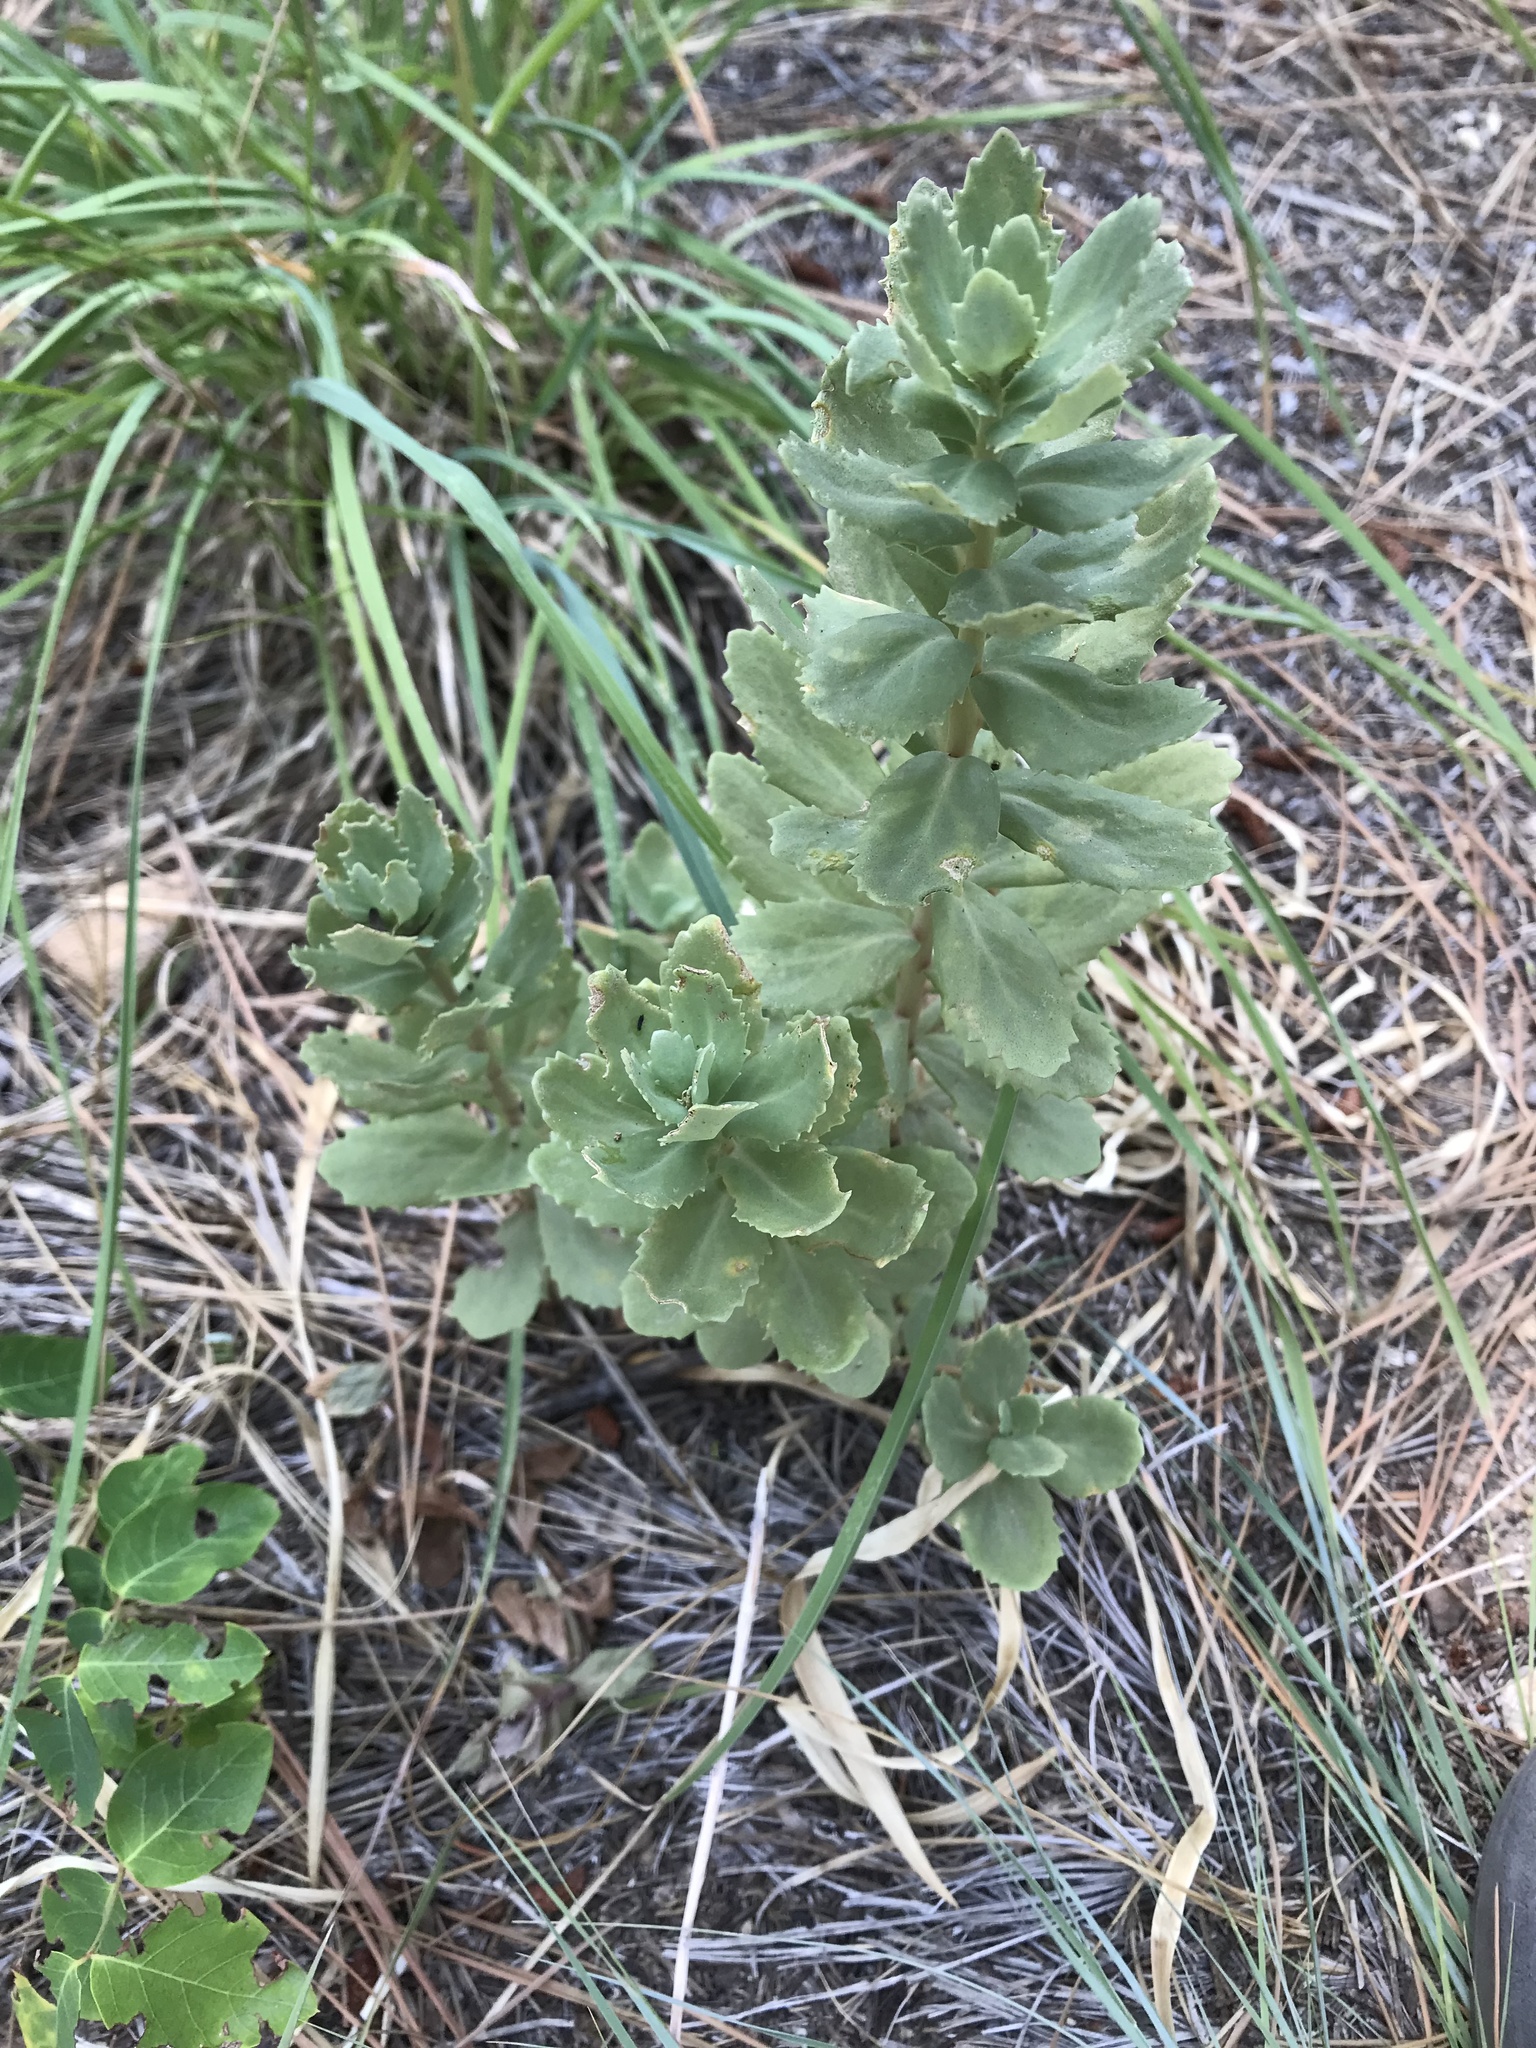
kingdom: Plantae
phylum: Tracheophyta
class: Magnoliopsida
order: Saxifragales
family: Crassulaceae
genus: Hylotelephium
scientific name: Hylotelephium telephium
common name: Live-forever
